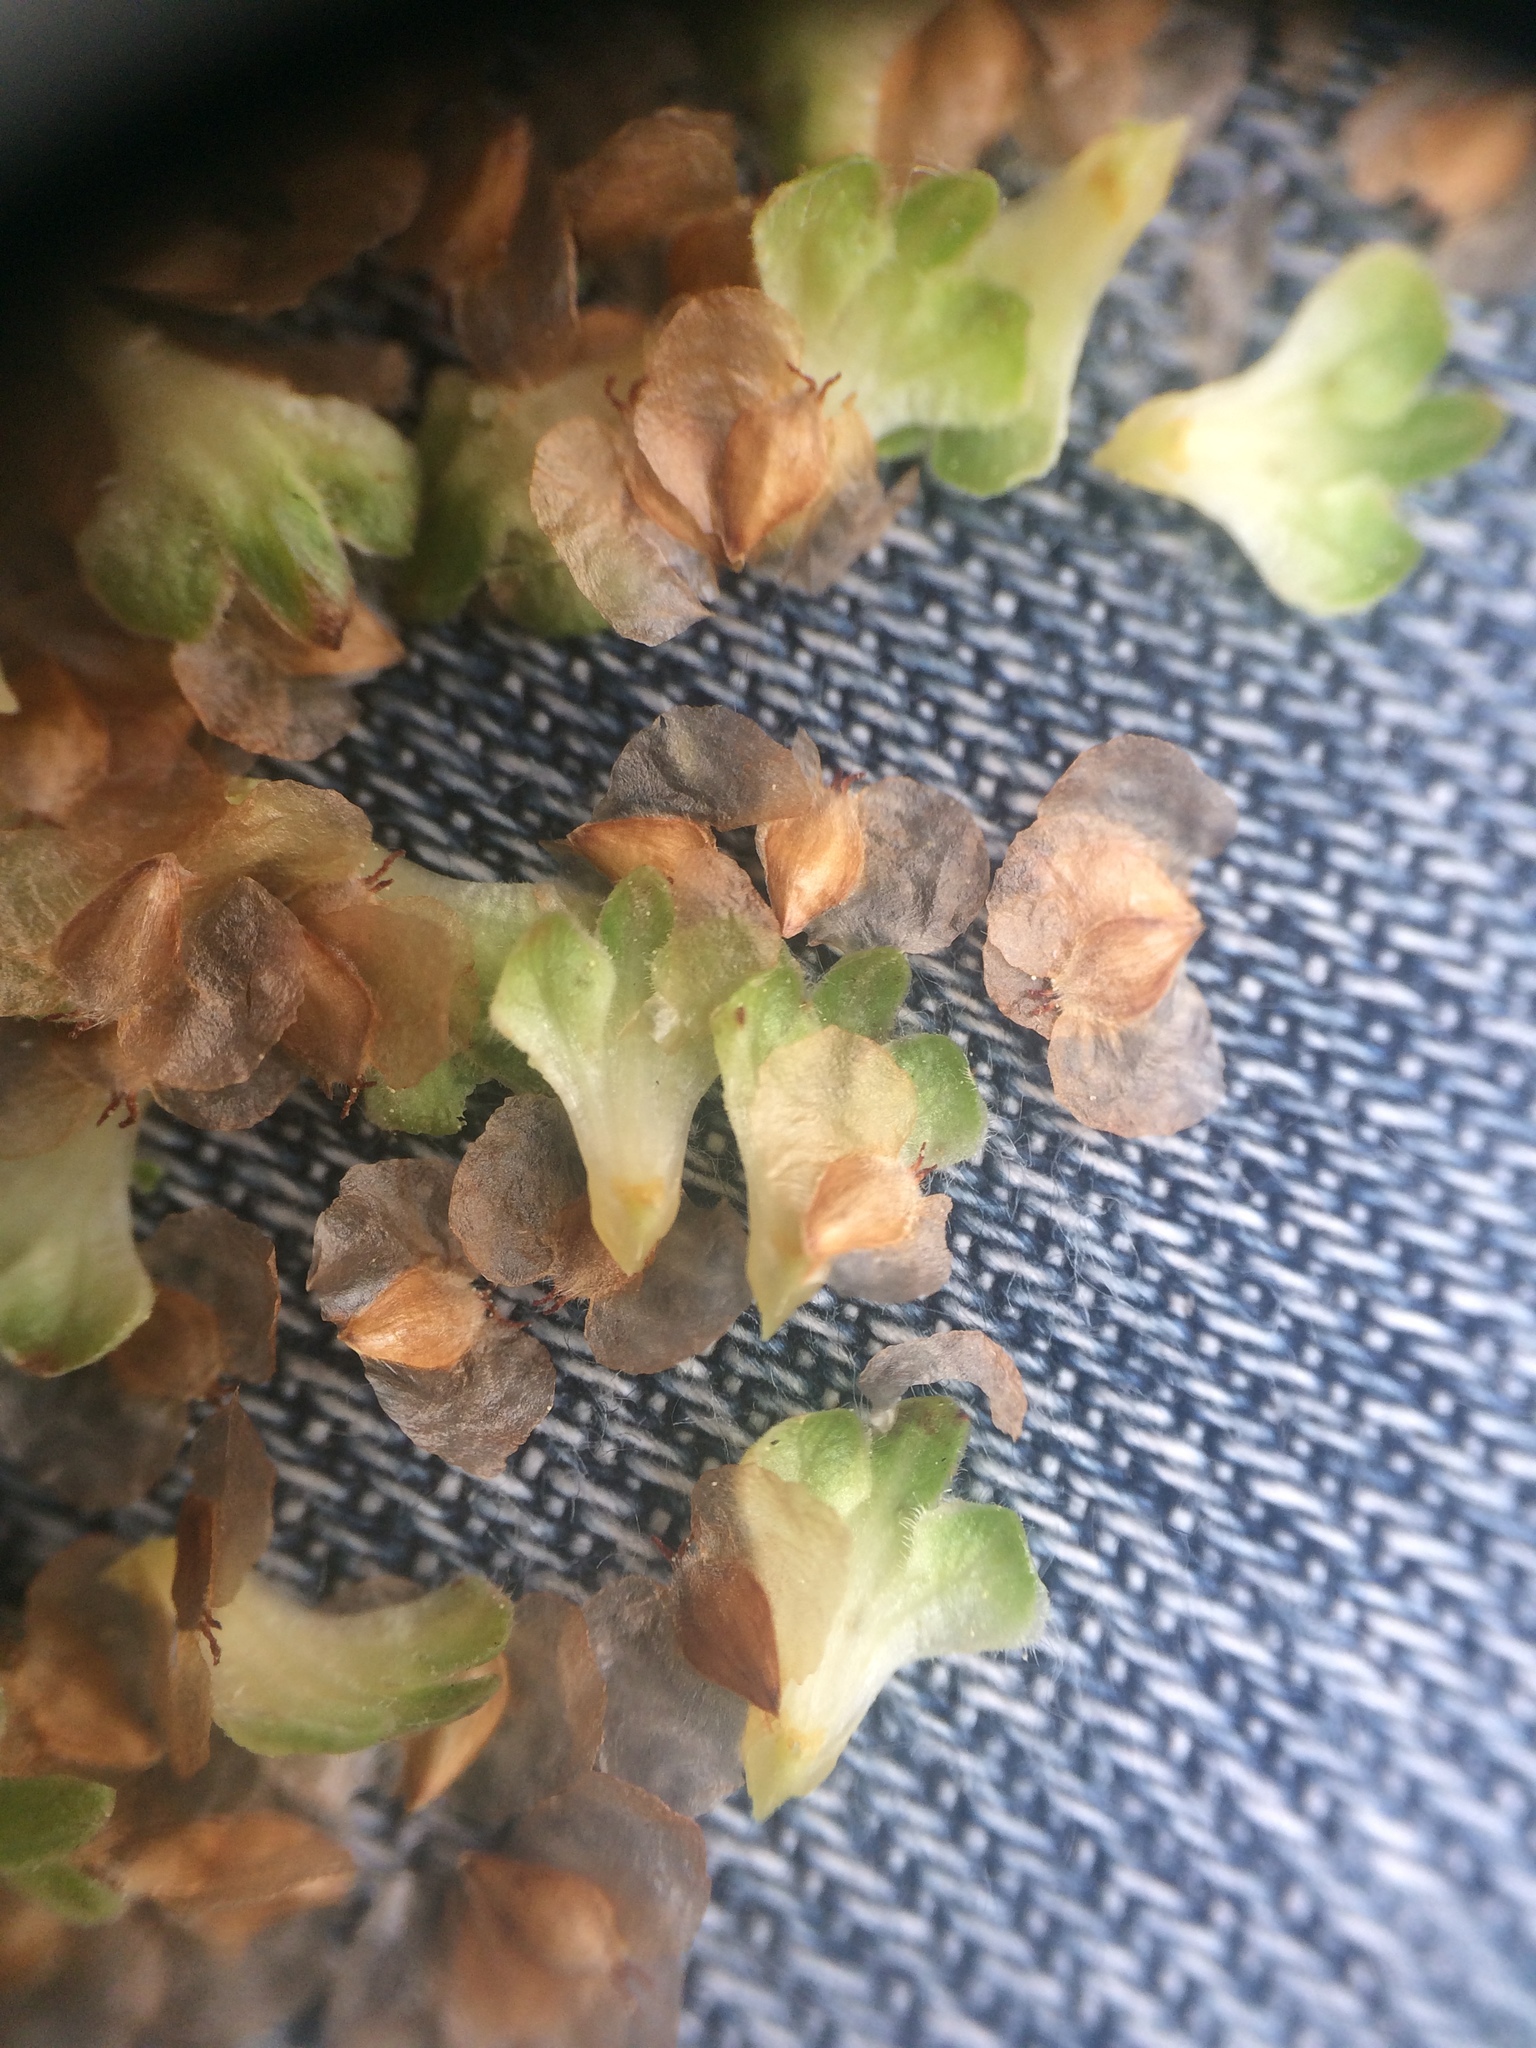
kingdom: Plantae
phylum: Tracheophyta
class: Magnoliopsida
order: Fagales
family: Betulaceae
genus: Betula
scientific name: Betula papyrifera
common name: Paper birch
